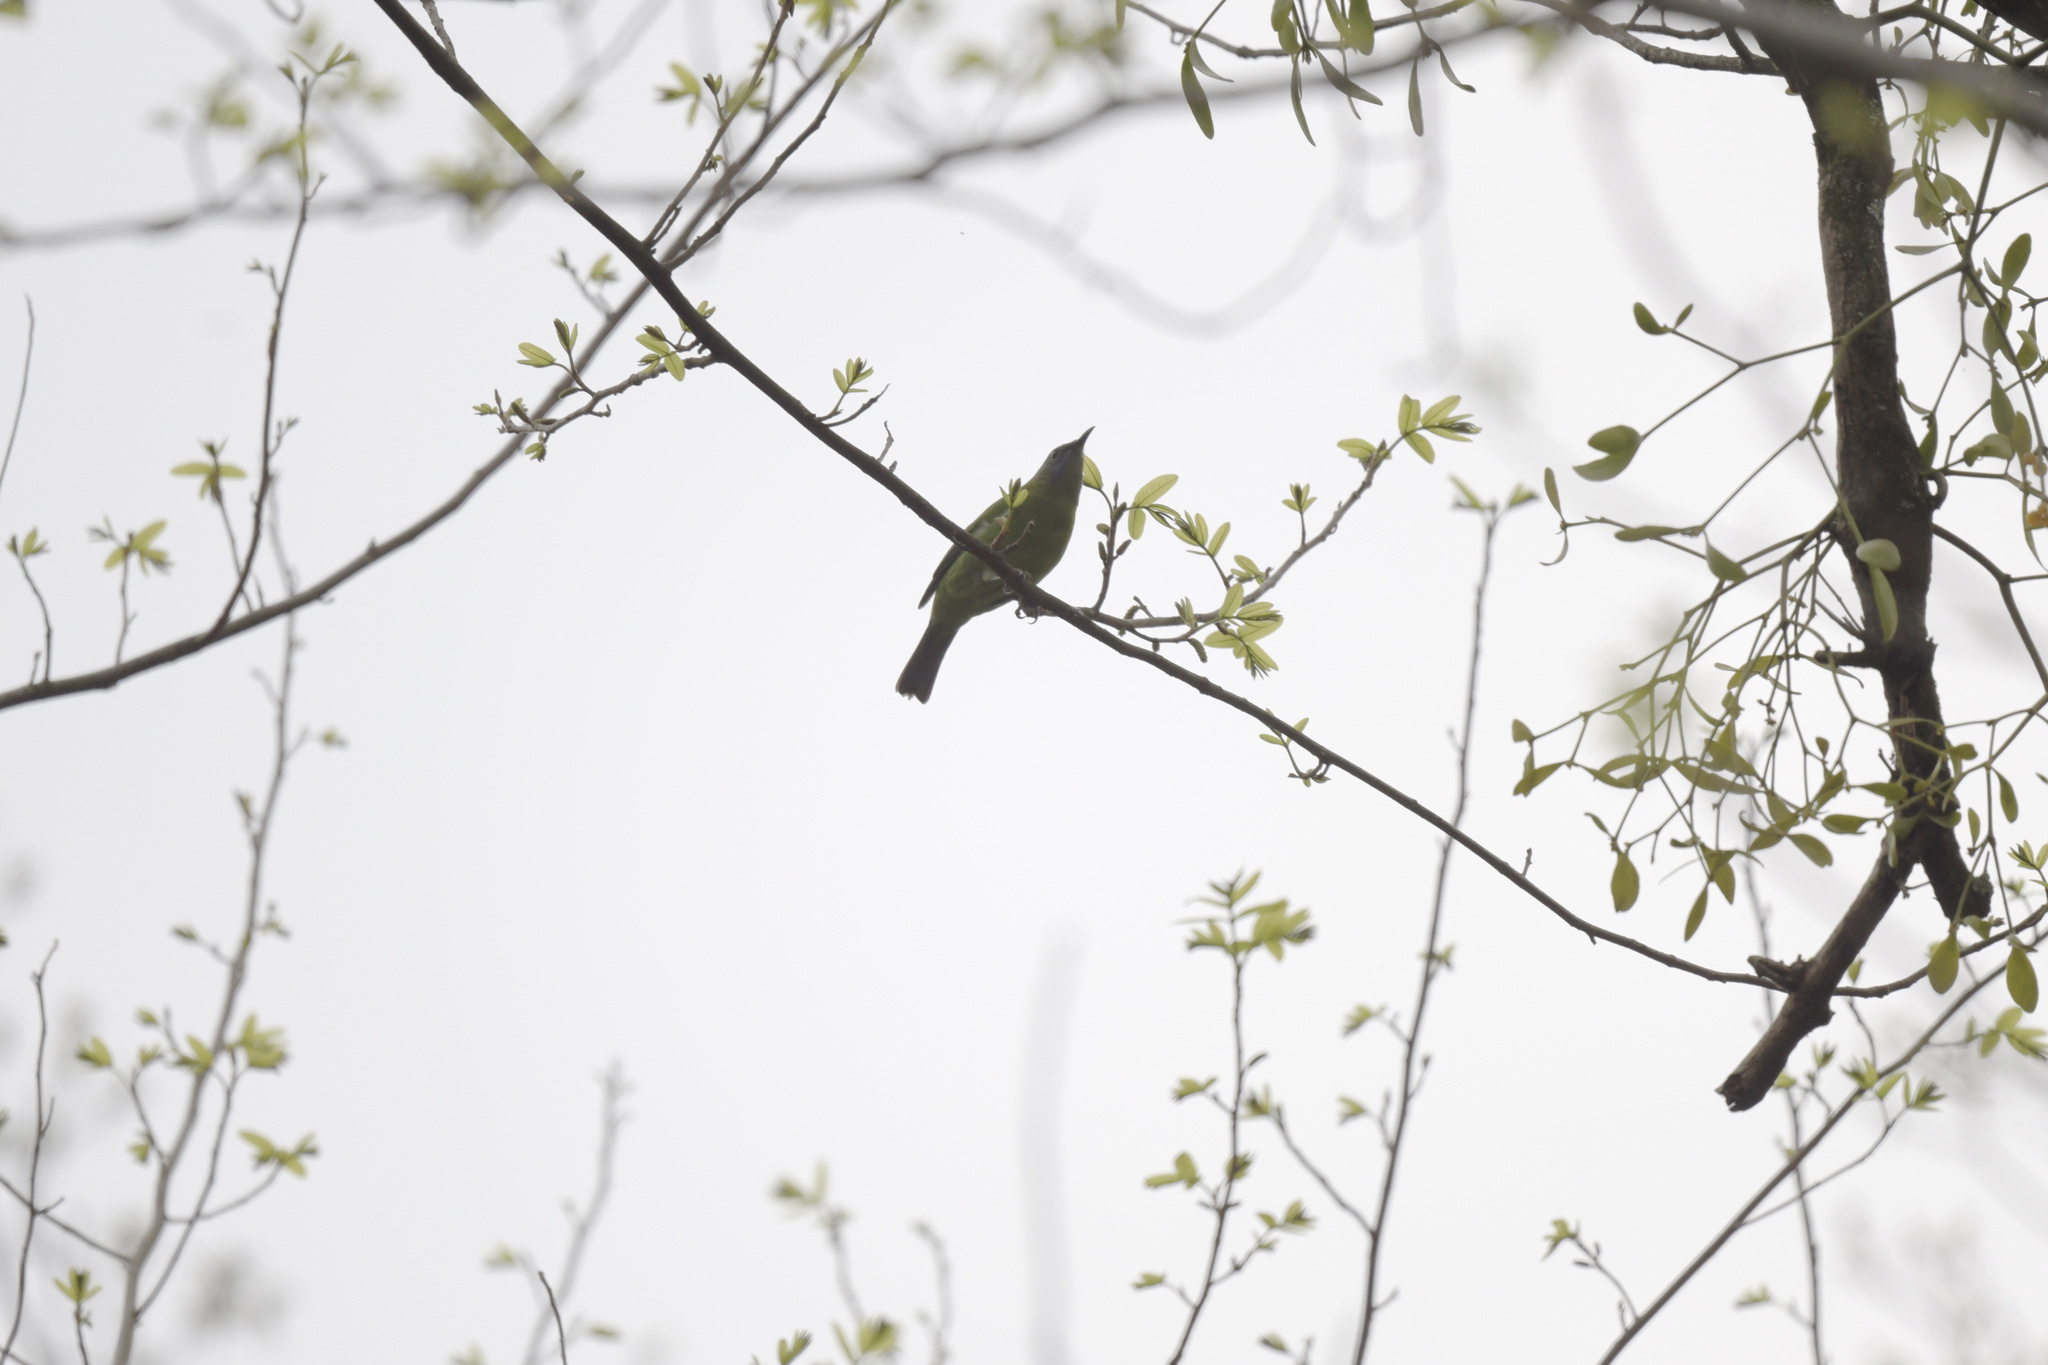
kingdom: Animalia
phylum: Chordata
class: Aves
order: Passeriformes
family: Chloropseidae
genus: Chloropsis
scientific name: Chloropsis hardwickii
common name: Orange-bellied leafbird
